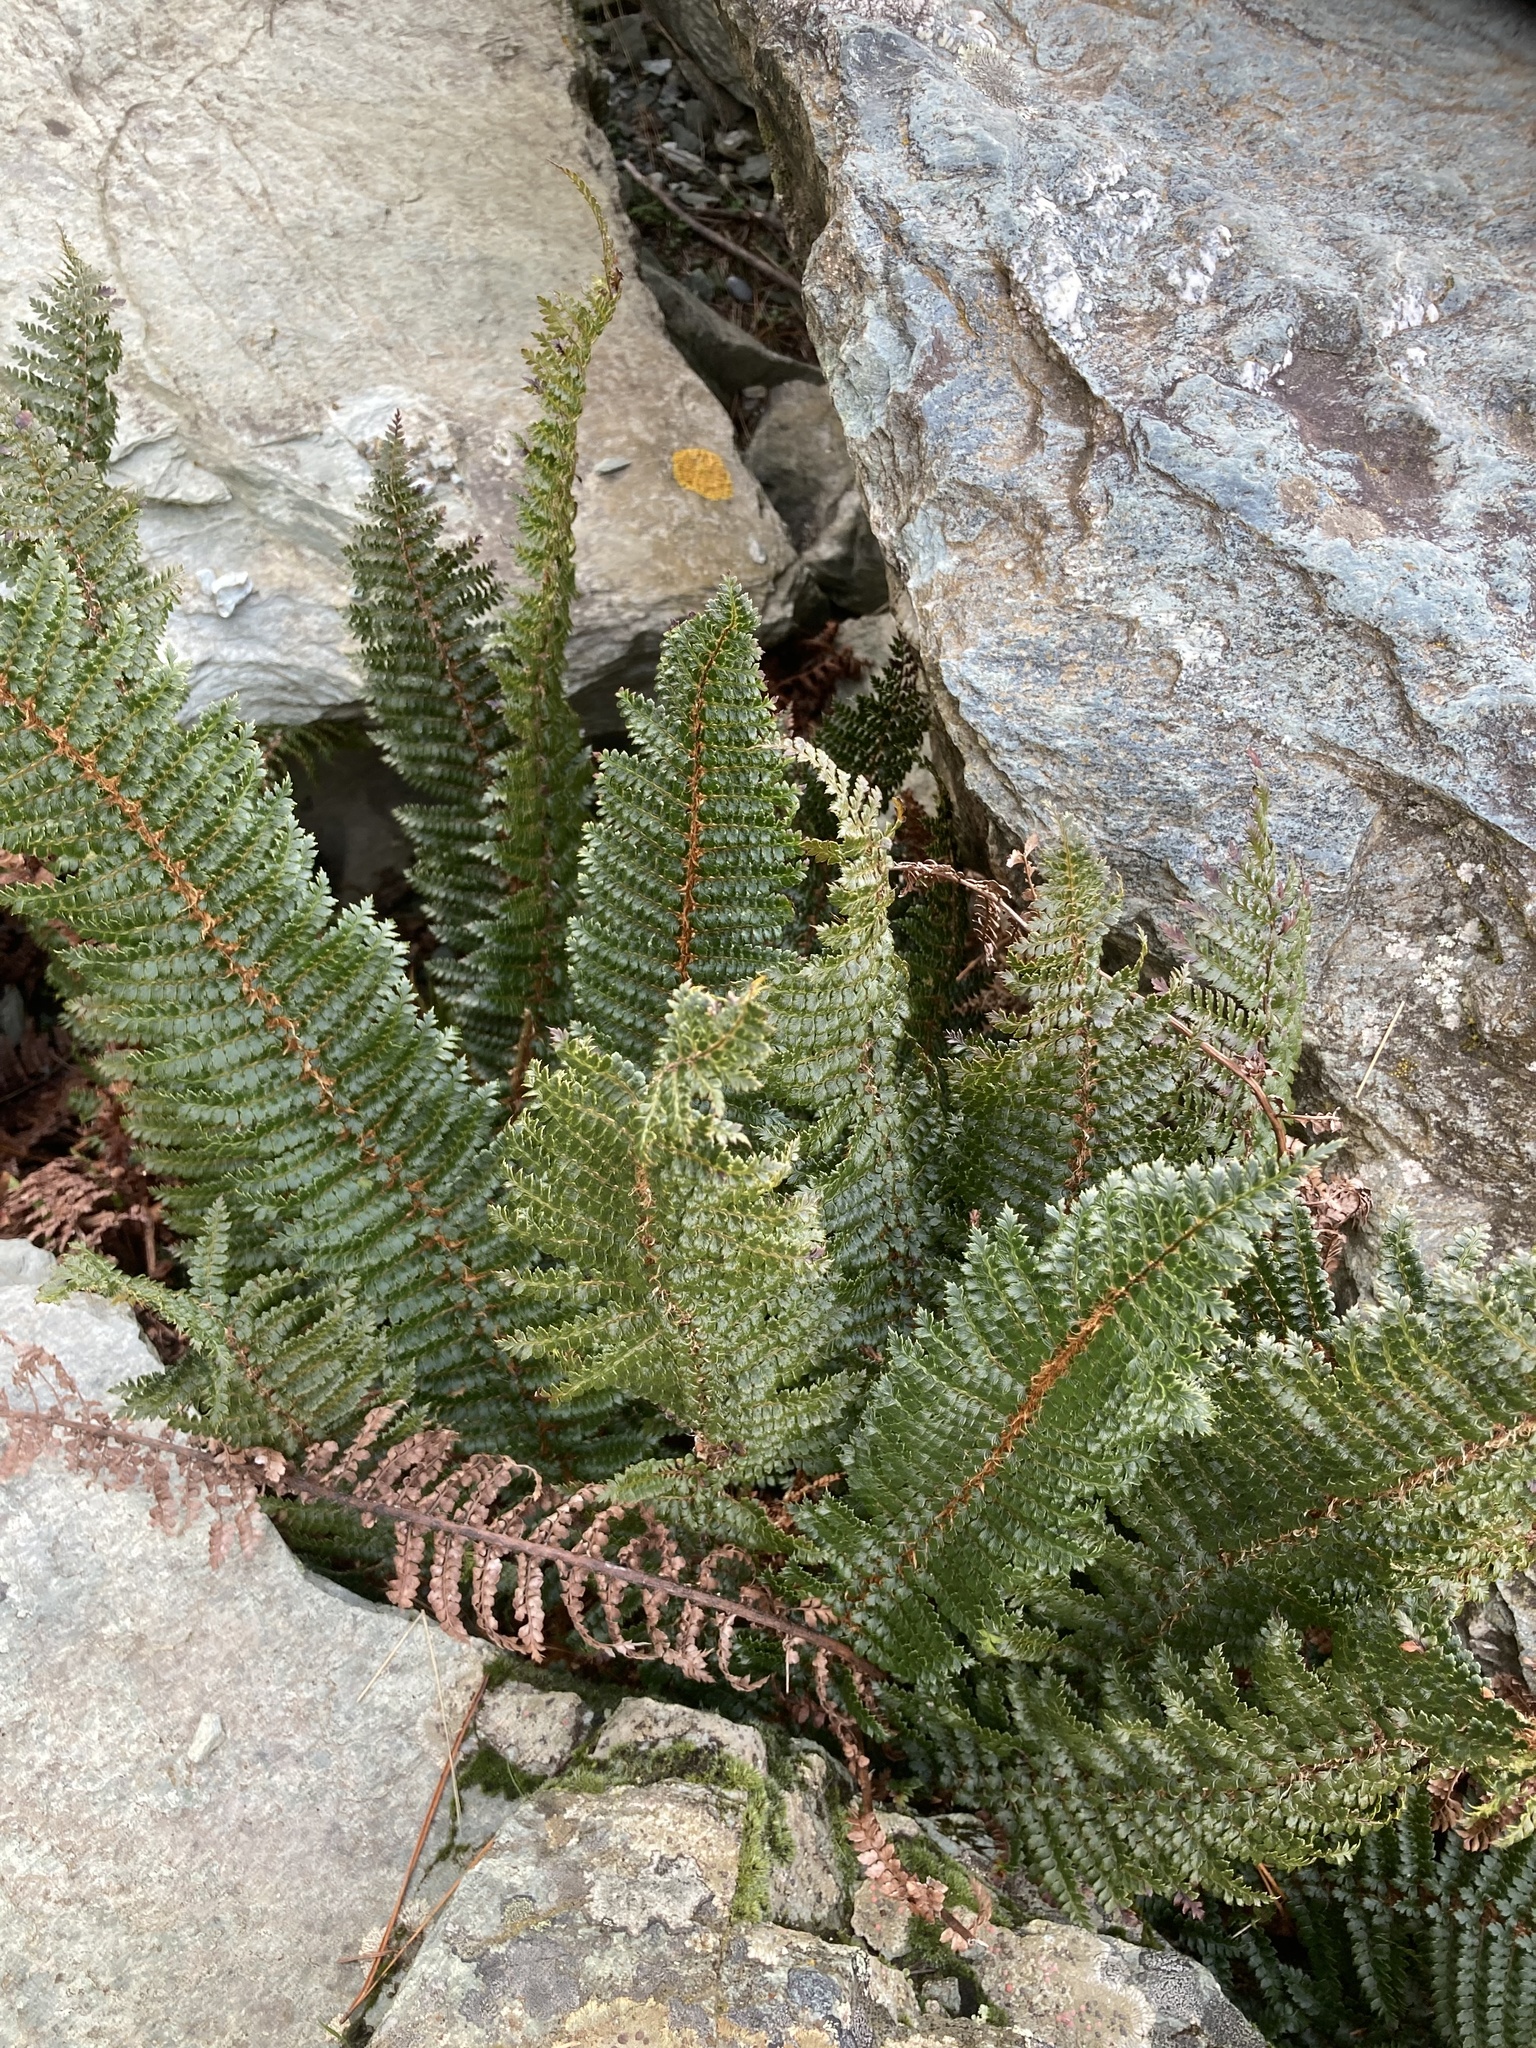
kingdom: Plantae
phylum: Tracheophyta
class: Polypodiopsida
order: Polypodiales
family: Dryopteridaceae
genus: Polystichum
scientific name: Polystichum vestitum
